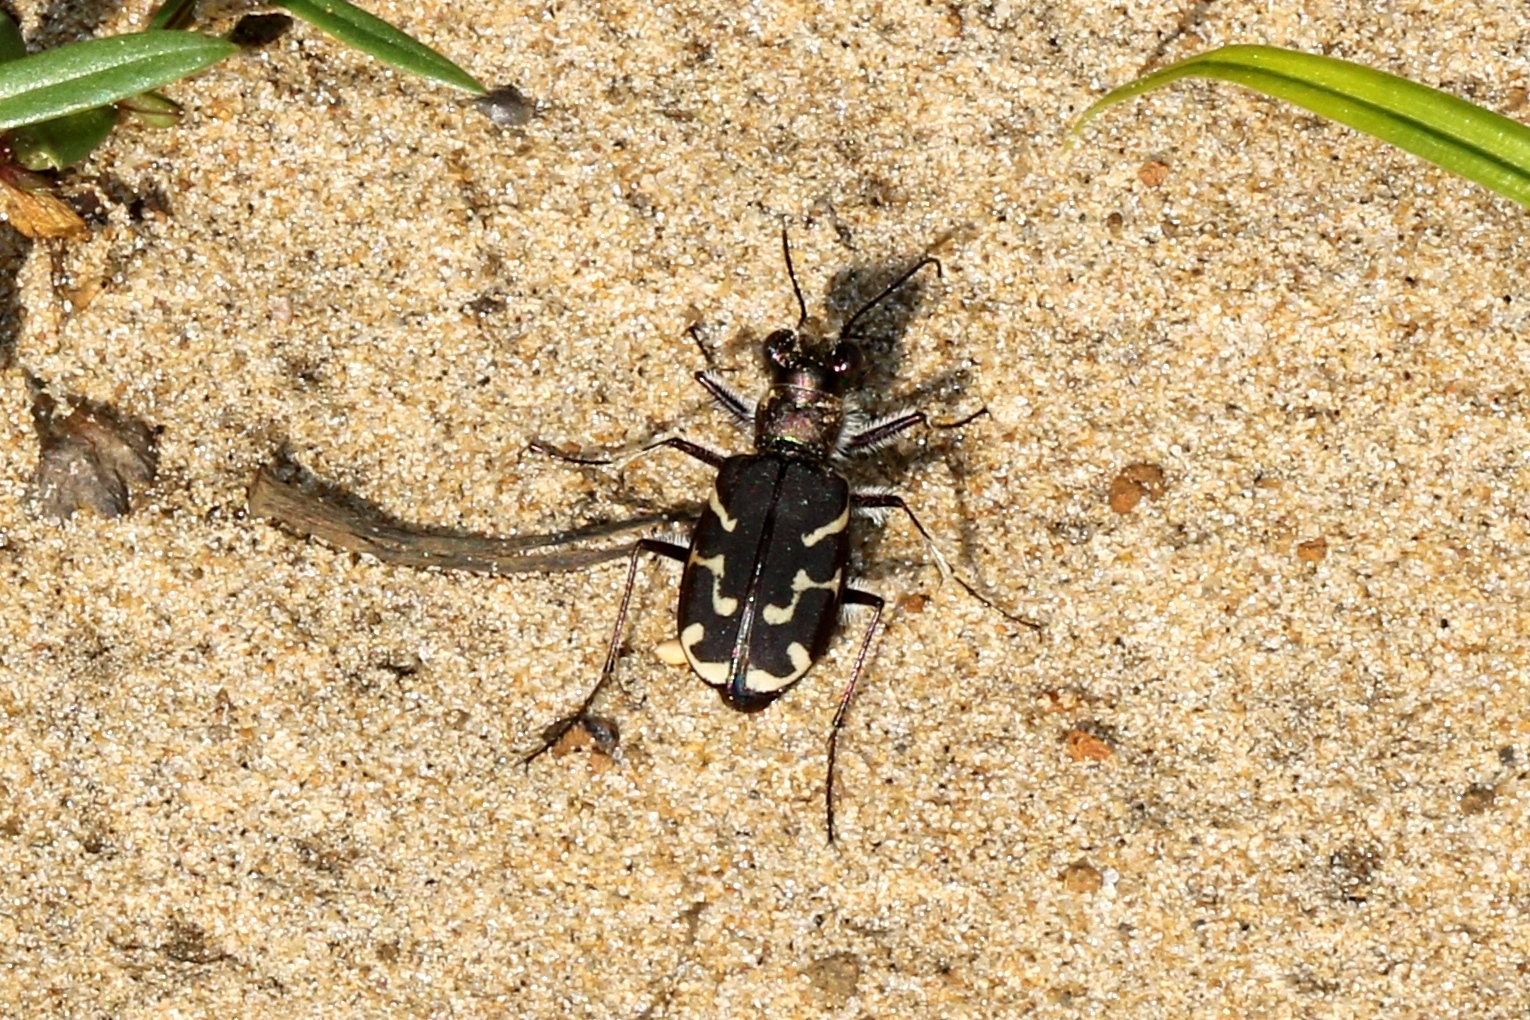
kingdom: Animalia
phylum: Arthropoda
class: Insecta
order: Coleoptera
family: Carabidae
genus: Cicindela
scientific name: Cicindela tranquebarica
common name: Oblique-lined tiger beetle
